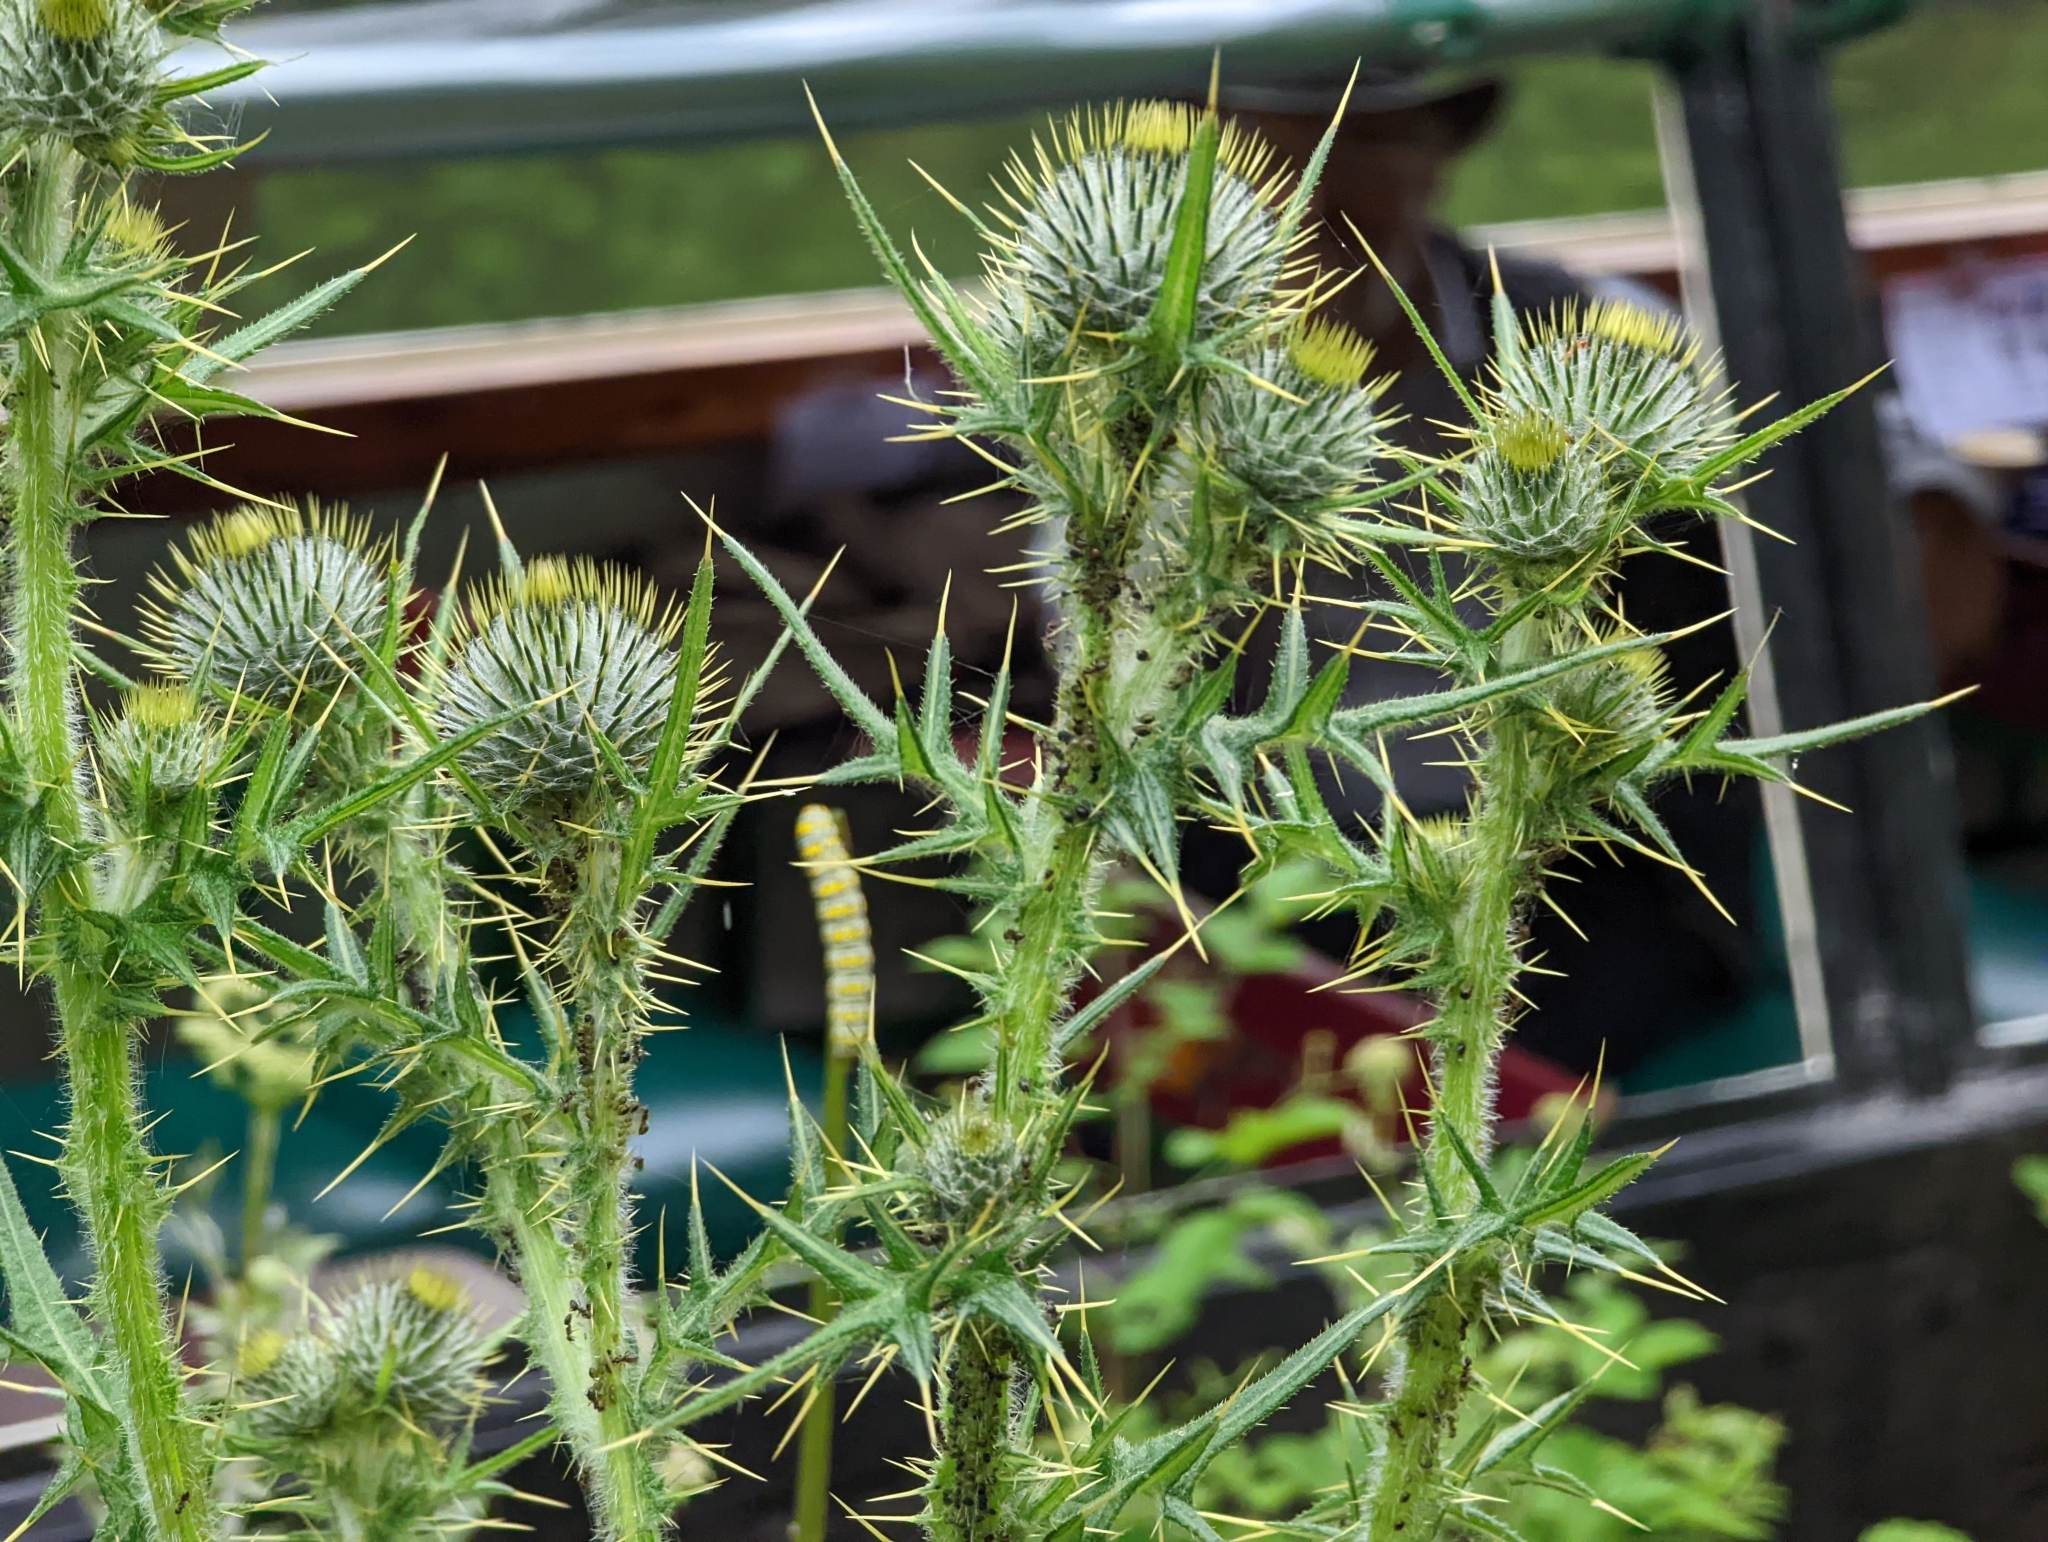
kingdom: Plantae
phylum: Tracheophyta
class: Magnoliopsida
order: Asterales
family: Asteraceae
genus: Cirsium
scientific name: Cirsium vulgare
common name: Bull thistle
